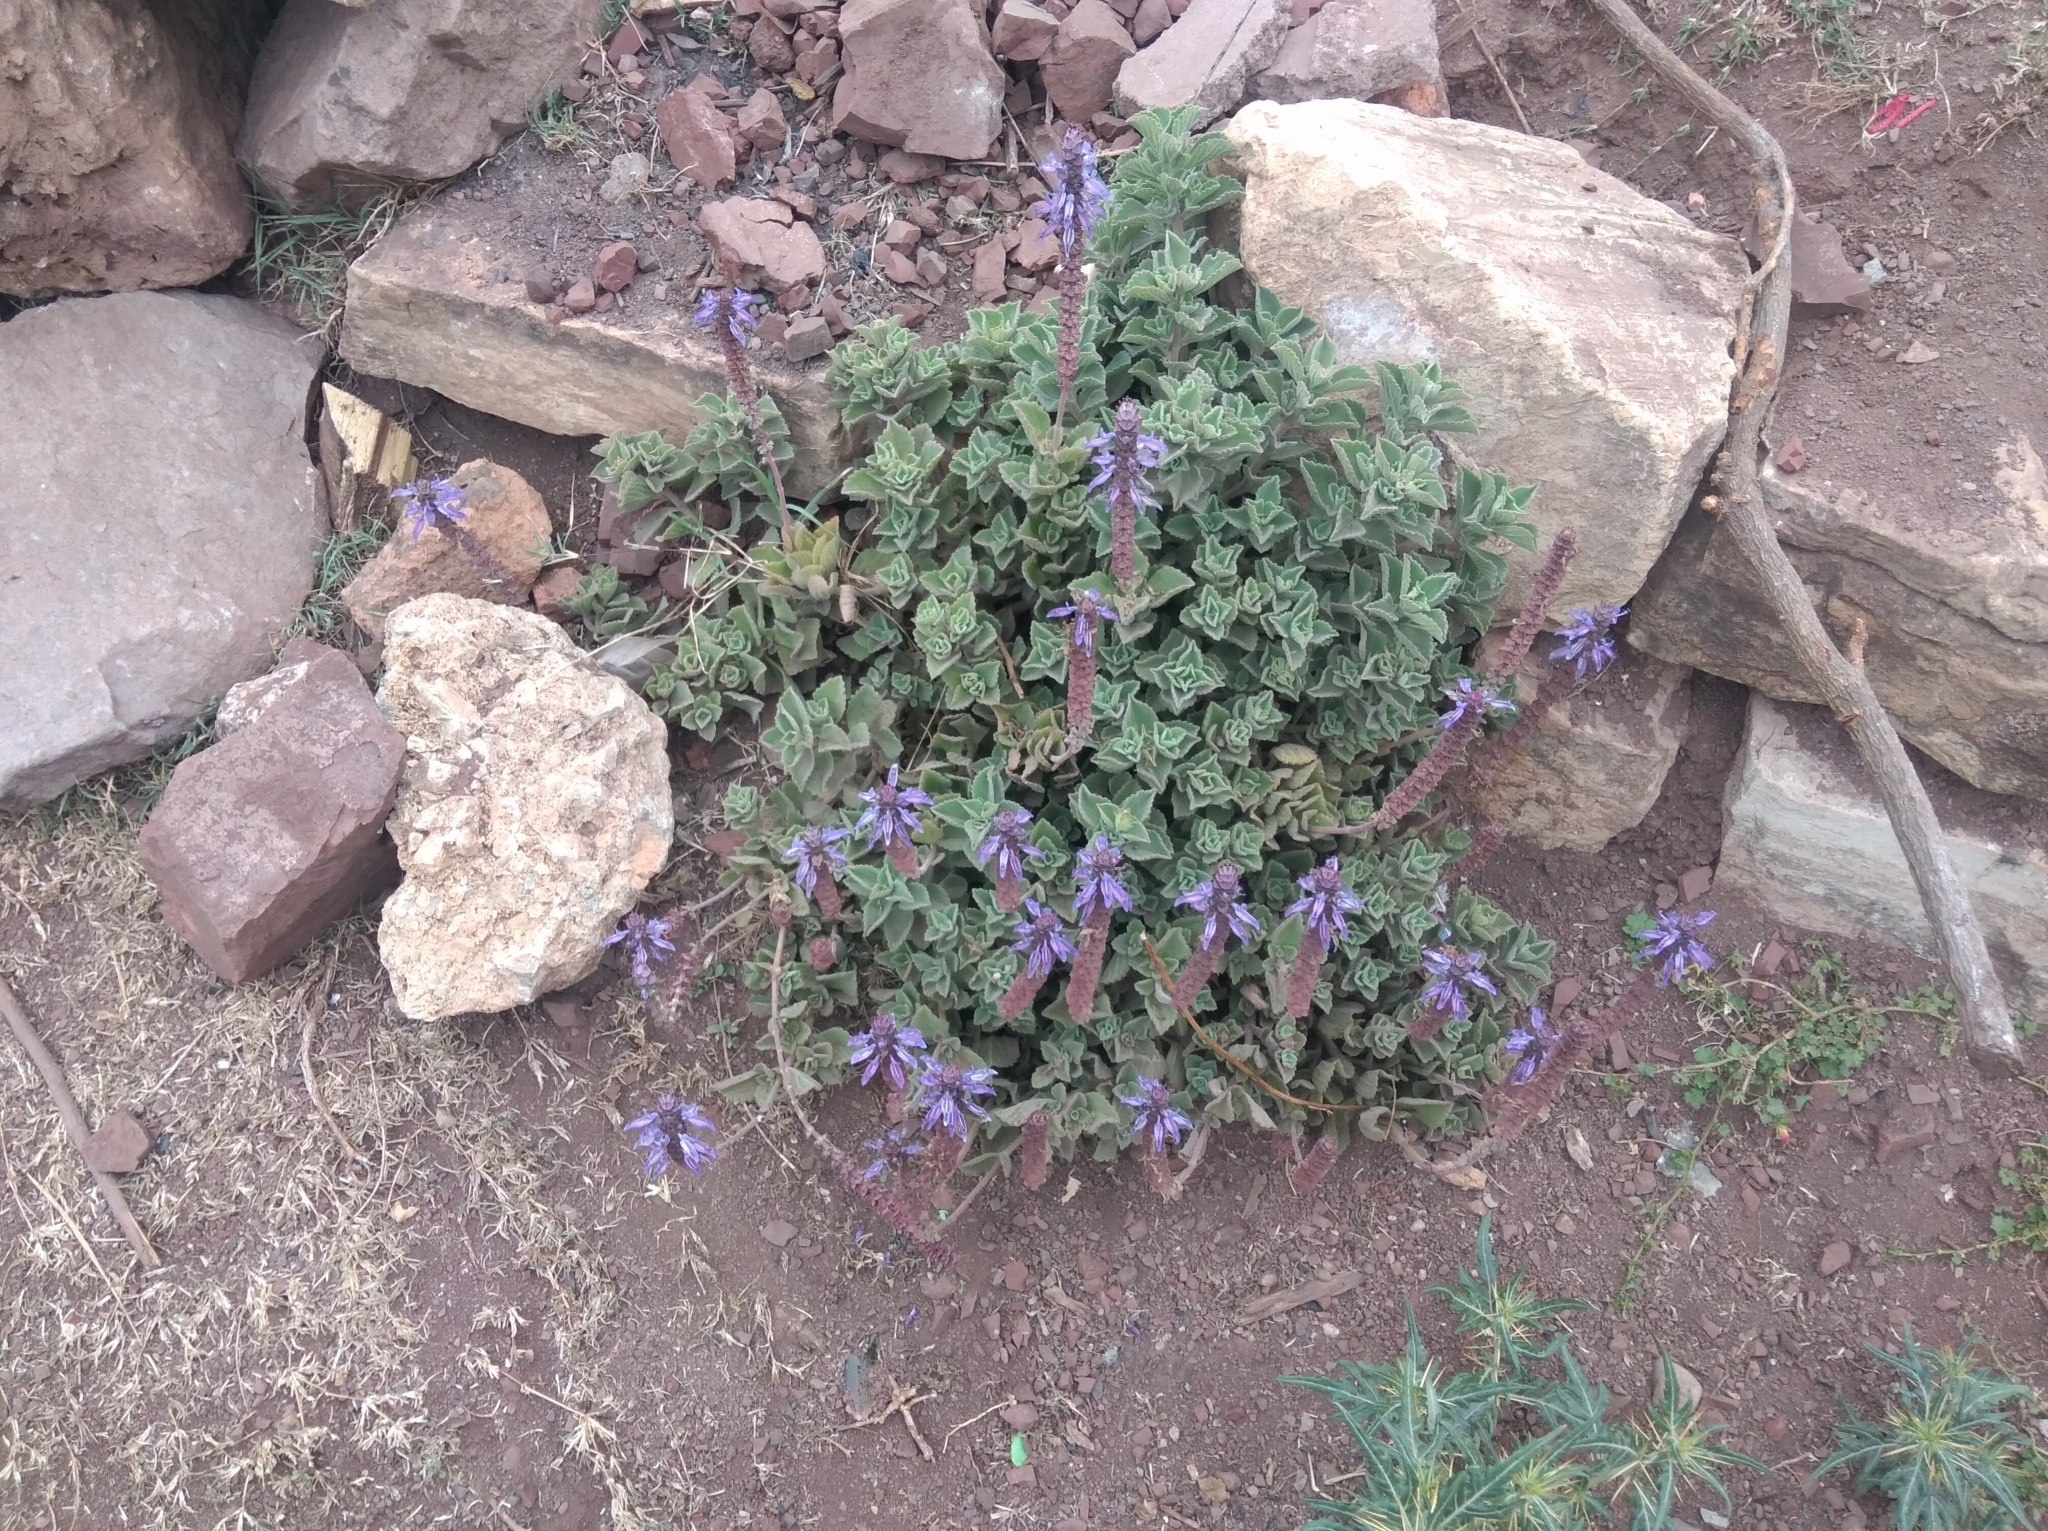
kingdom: Plantae
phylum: Tracheophyta
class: Magnoliopsida
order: Lamiales
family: Lamiaceae
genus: Coleus
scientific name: Coleus neochilus
